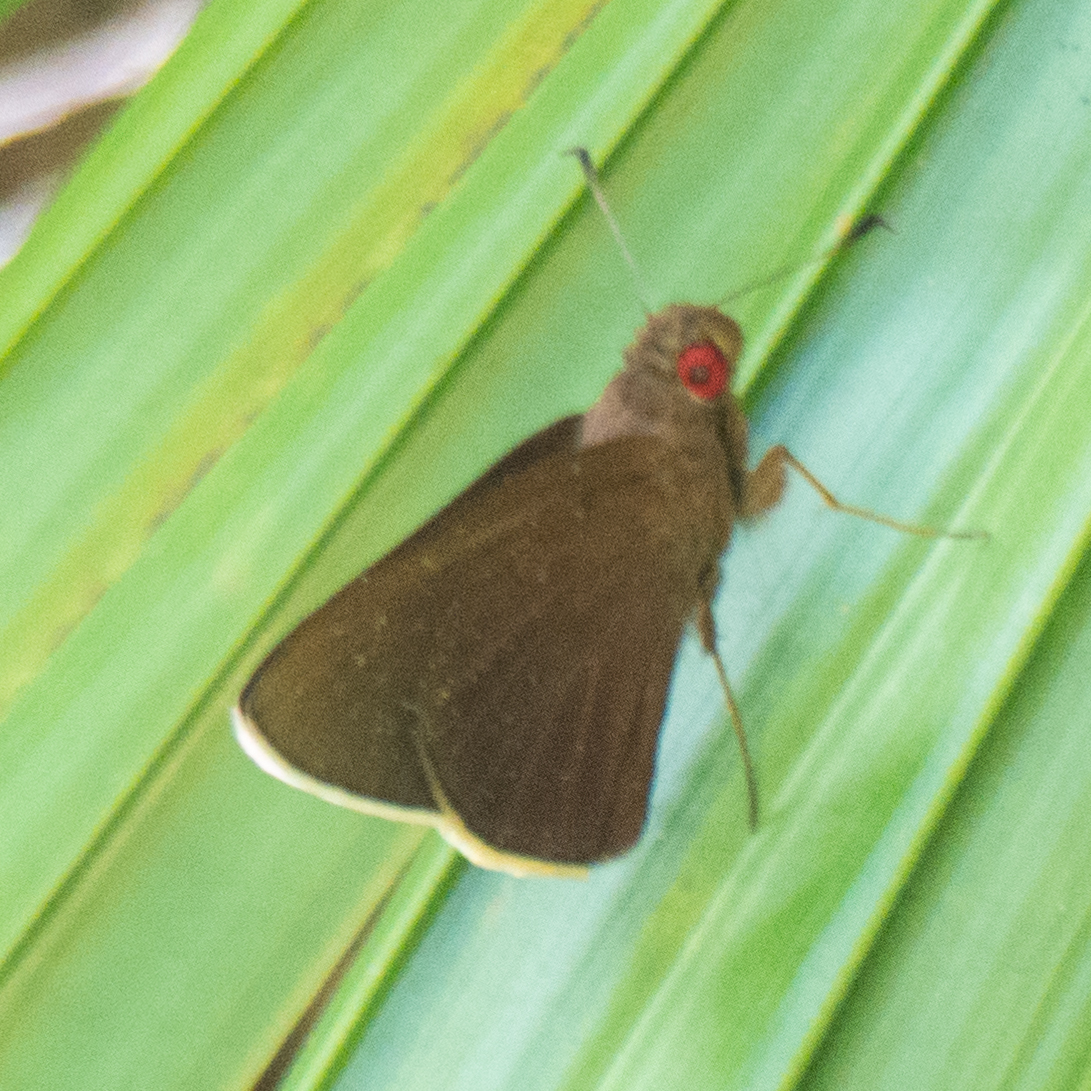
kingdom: Animalia
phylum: Arthropoda
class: Insecta
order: Lepidoptera
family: Hesperiidae
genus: Matapa
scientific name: Matapa aria
